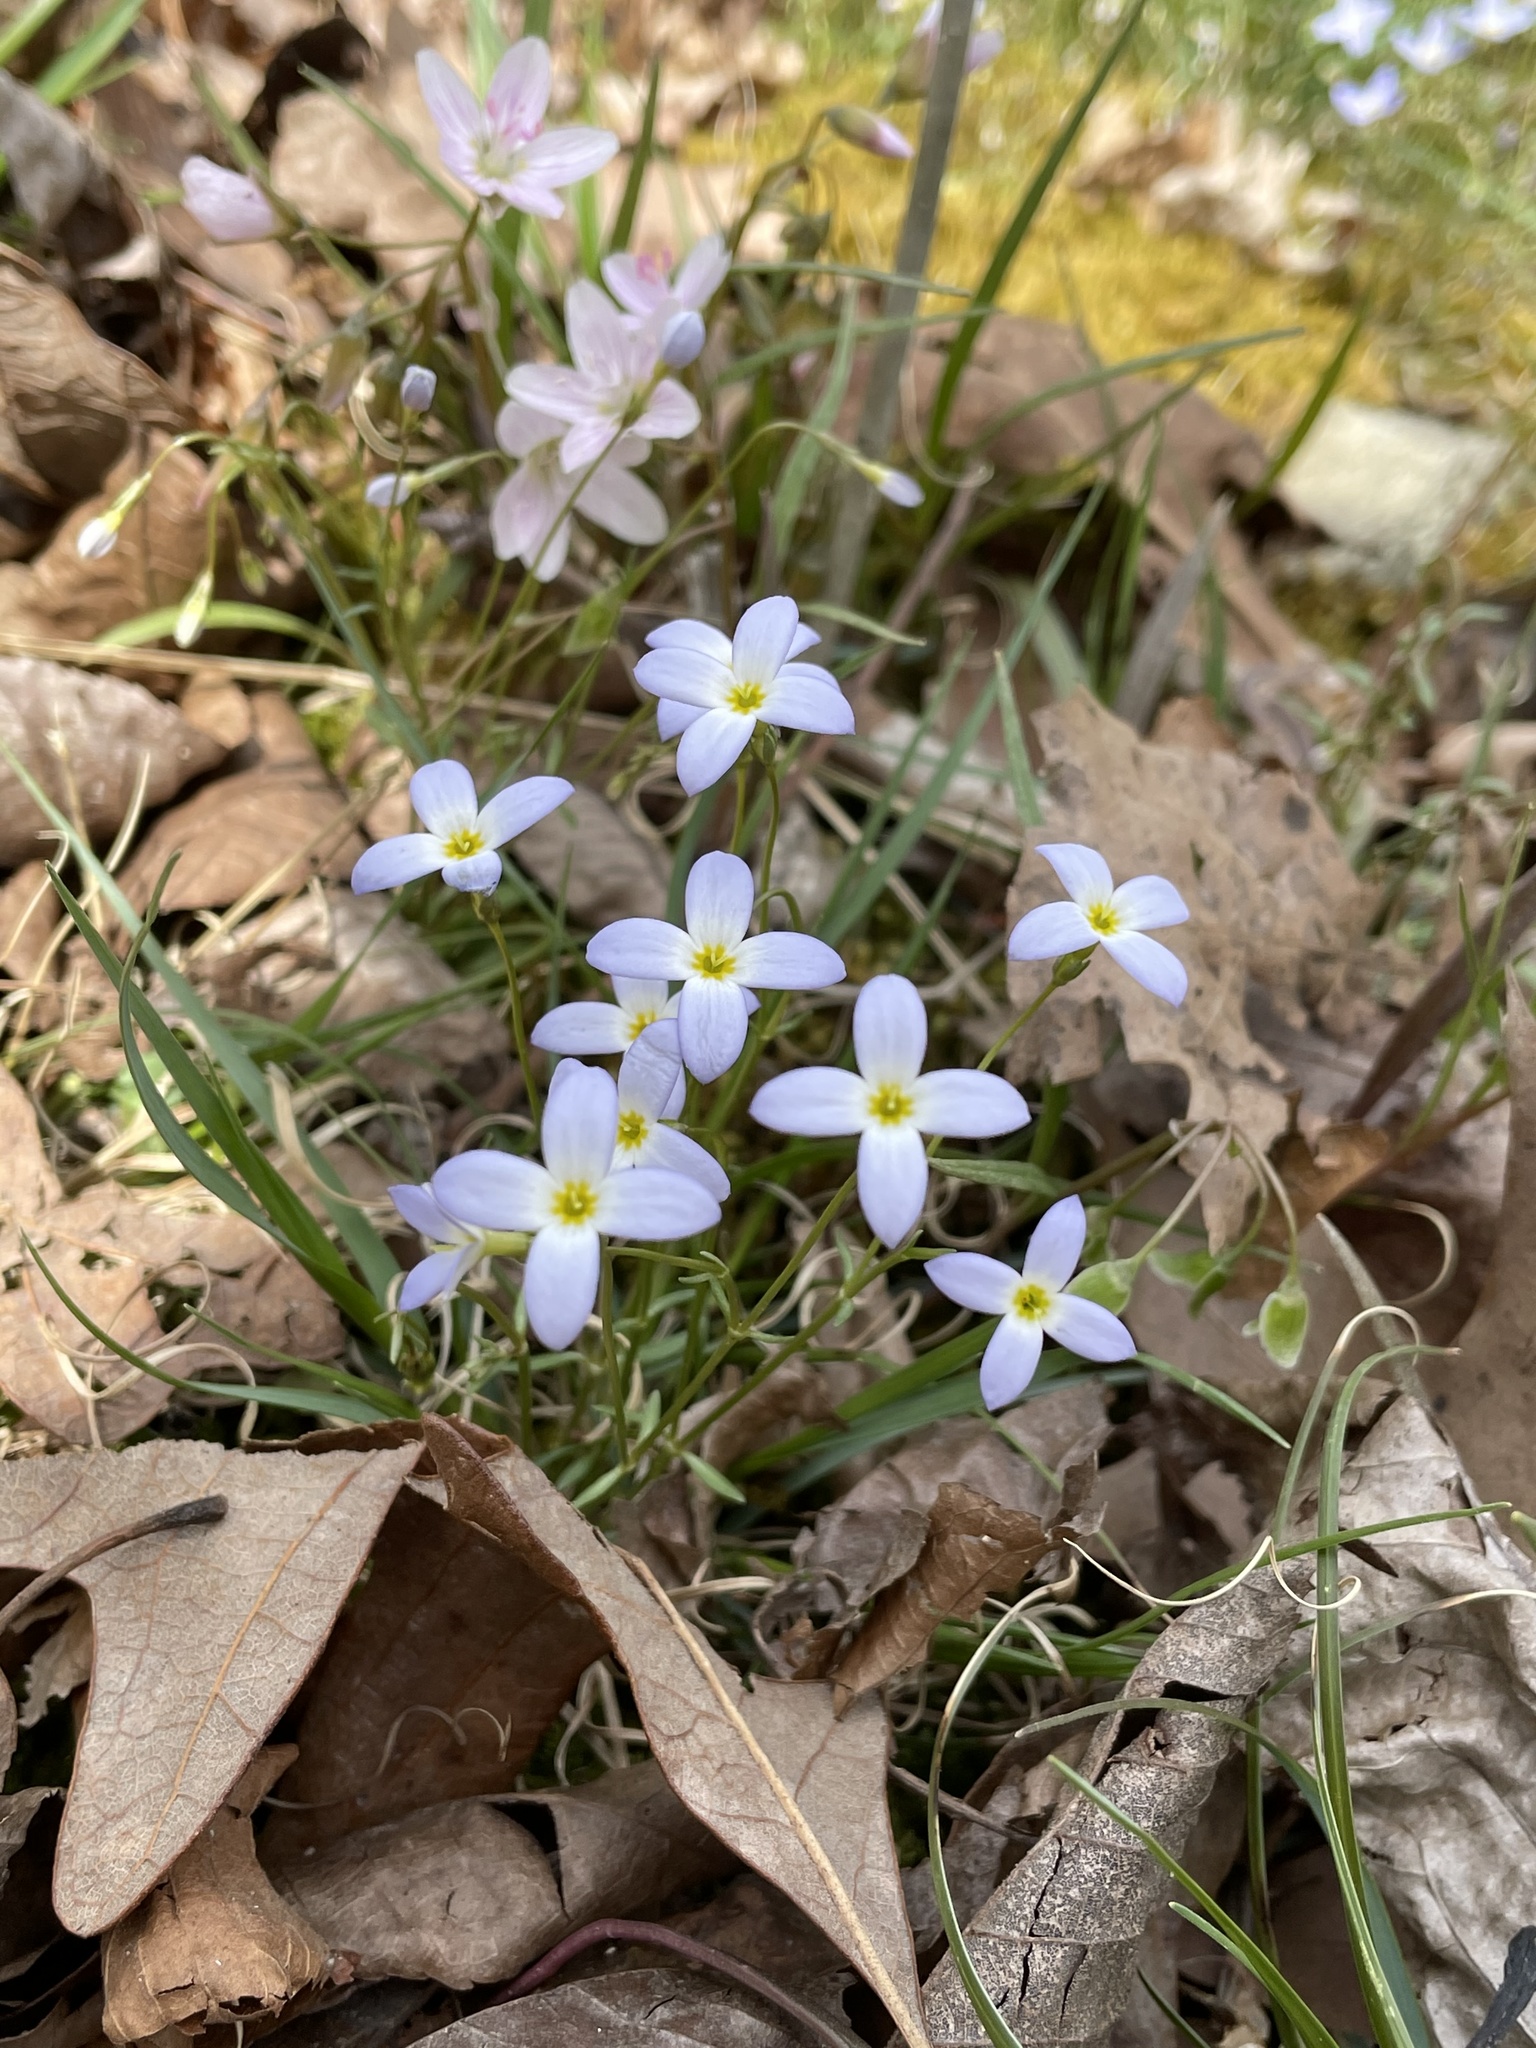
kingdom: Plantae
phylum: Tracheophyta
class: Magnoliopsida
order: Gentianales
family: Rubiaceae
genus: Houstonia
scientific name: Houstonia caerulea
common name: Bluets
